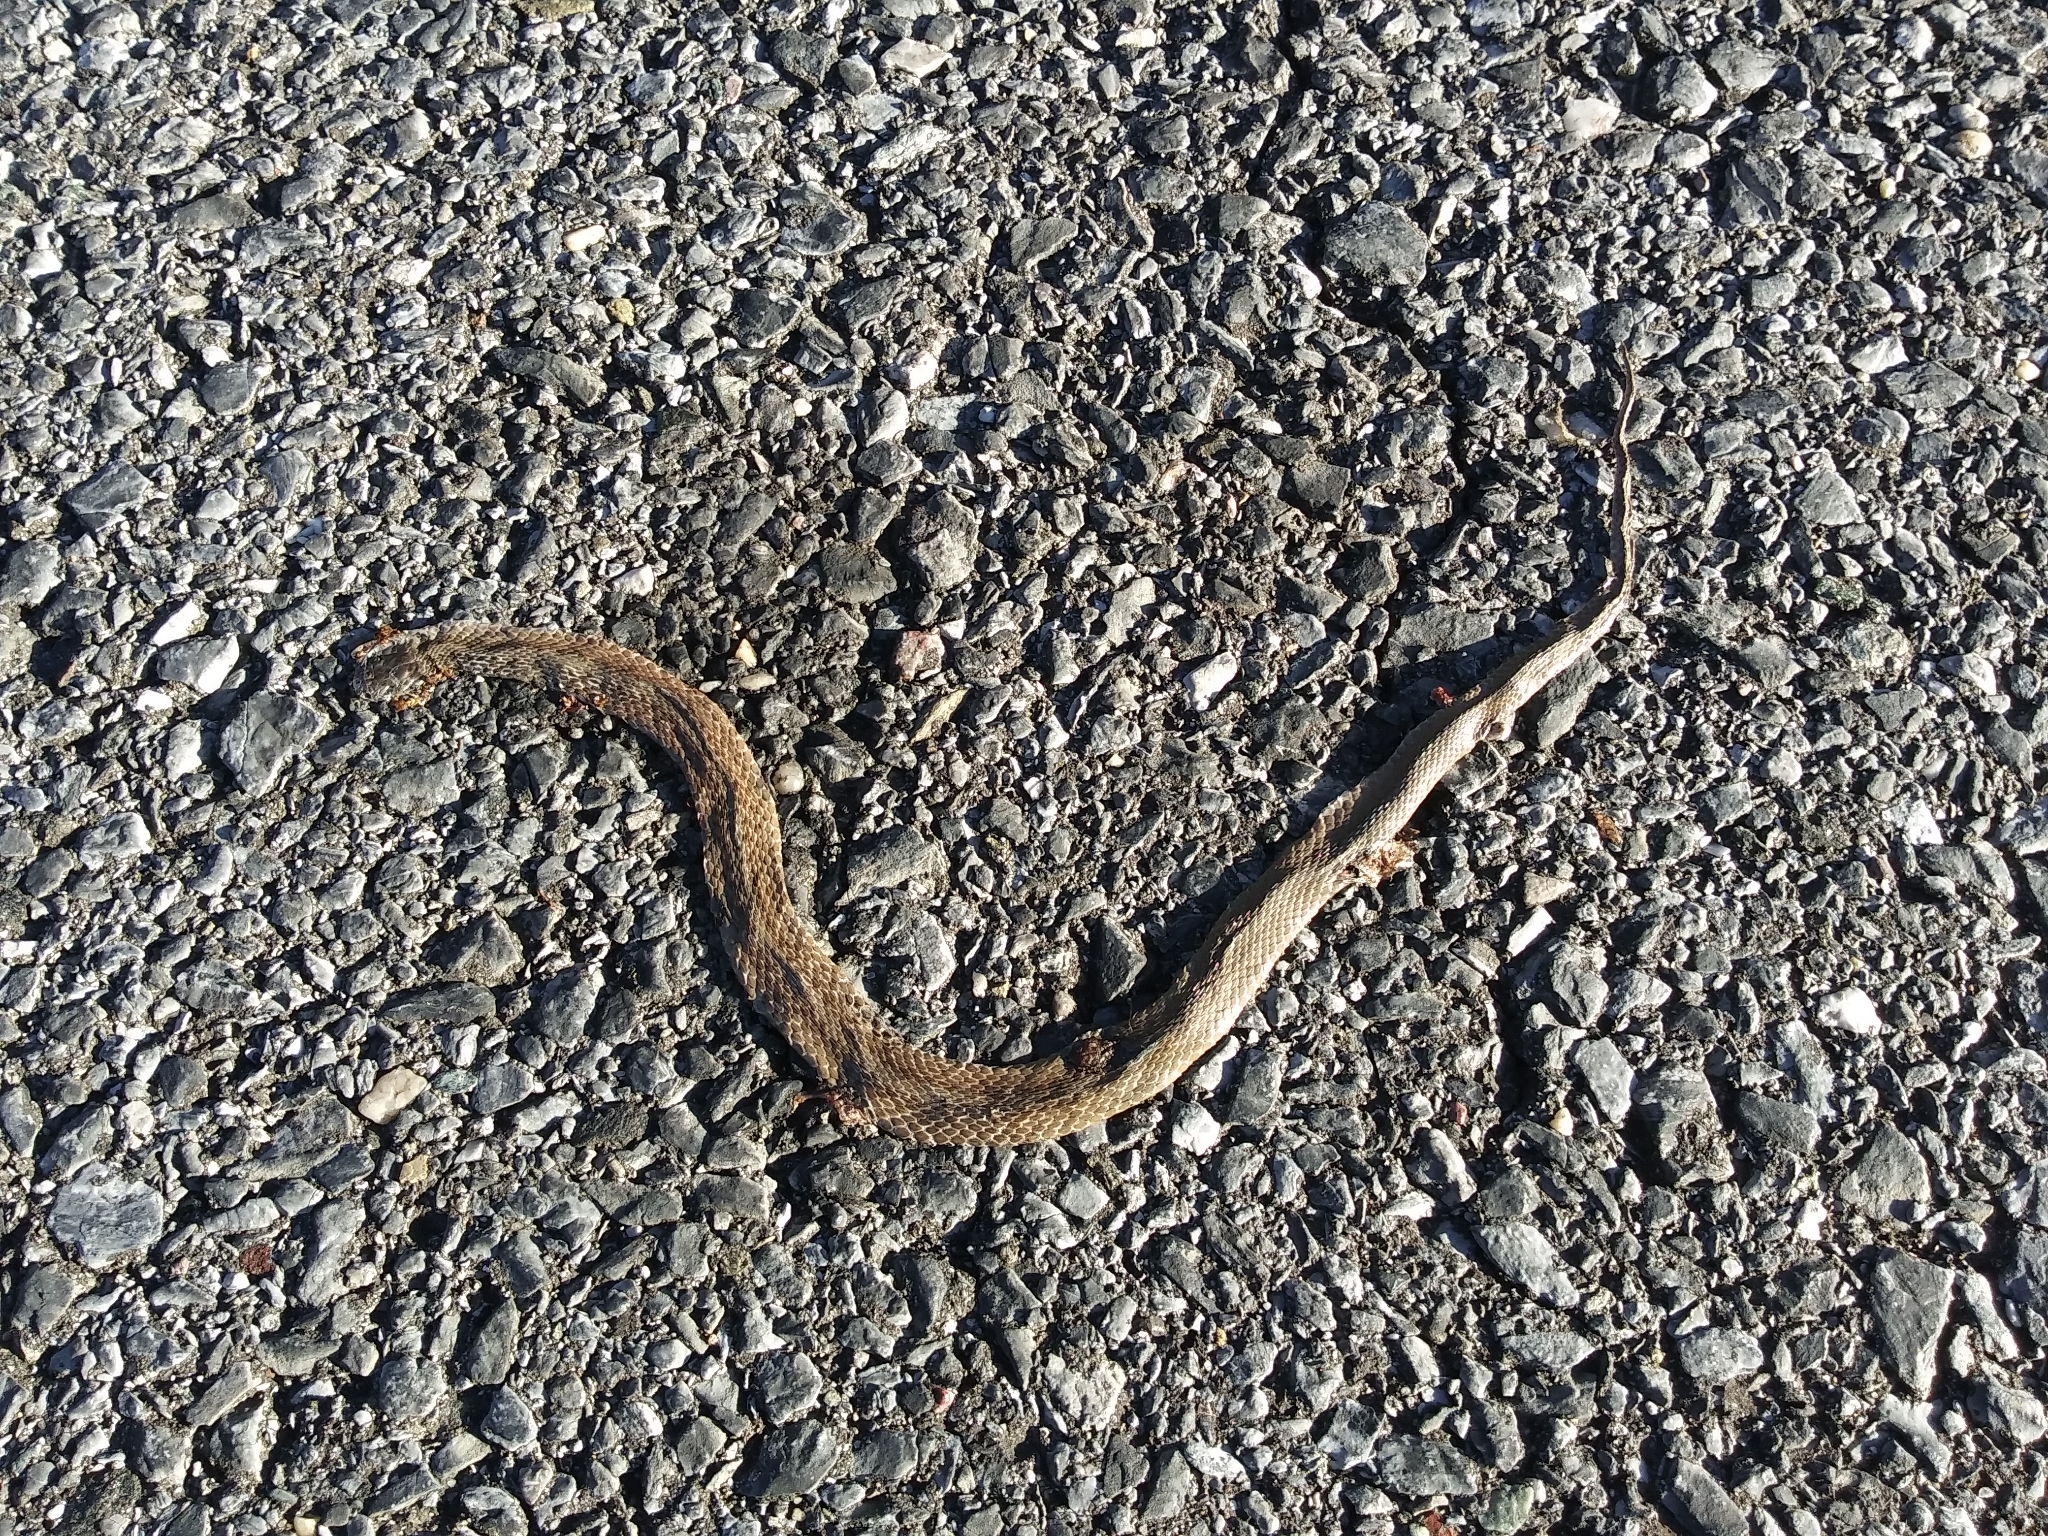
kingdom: Animalia
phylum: Chordata
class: Squamata
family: Colubridae
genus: Storeria
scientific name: Storeria dekayi
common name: (dekay’s) brown snake
